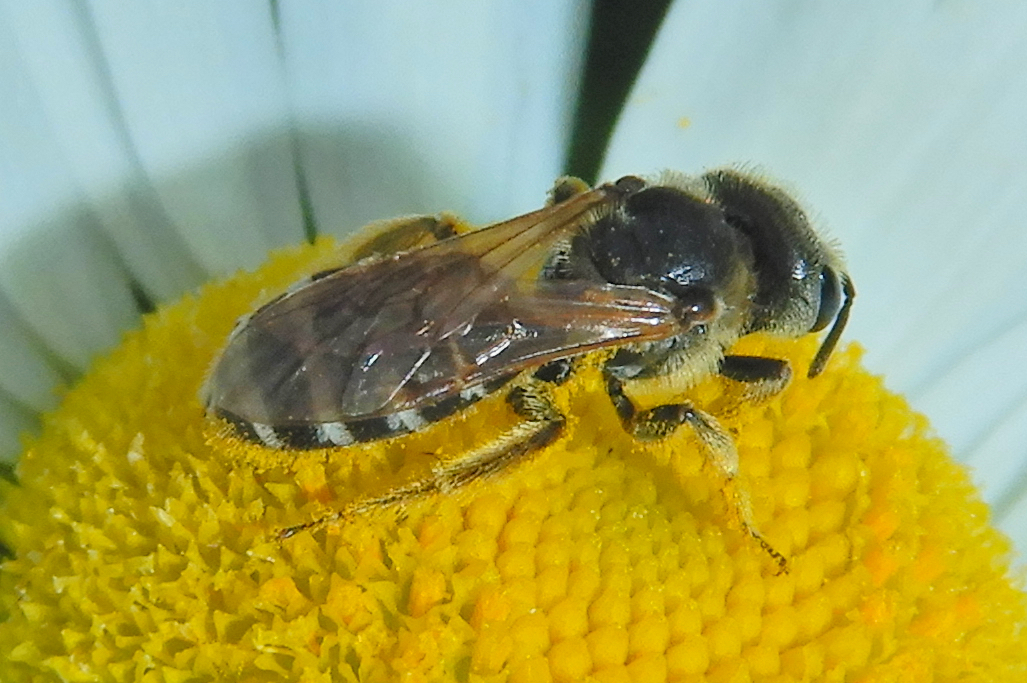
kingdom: Animalia
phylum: Arthropoda
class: Insecta
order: Hymenoptera
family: Halictidae
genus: Halictus
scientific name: Halictus ligatus
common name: Ligated furrow bee
